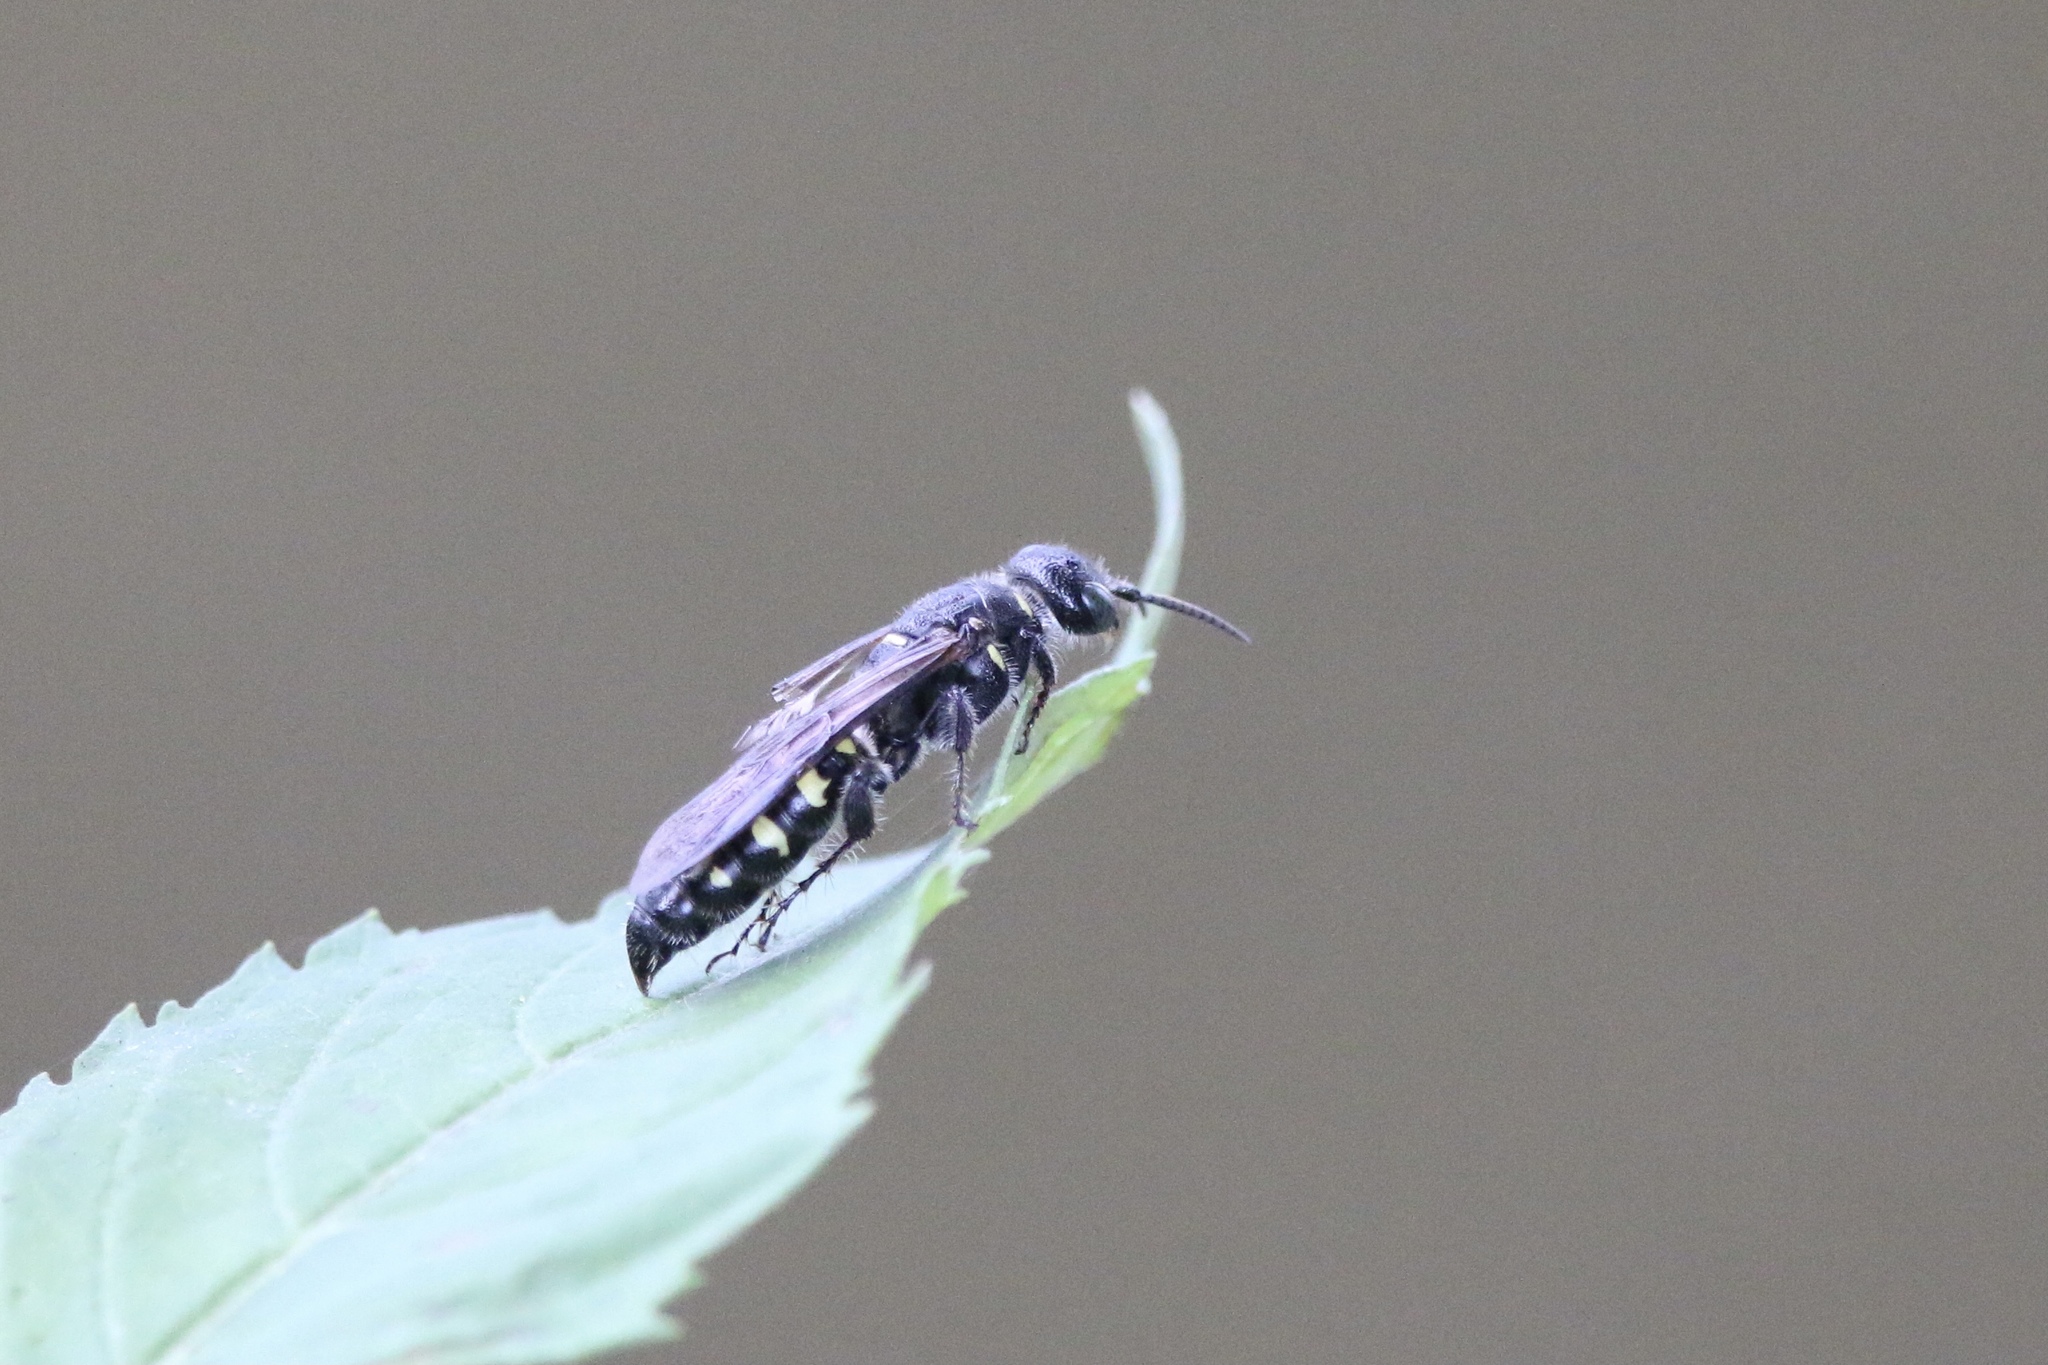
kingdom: Animalia
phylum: Arthropoda
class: Insecta
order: Hymenoptera
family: Tiphiidae
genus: Myzinum
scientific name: Myzinum obscurum
